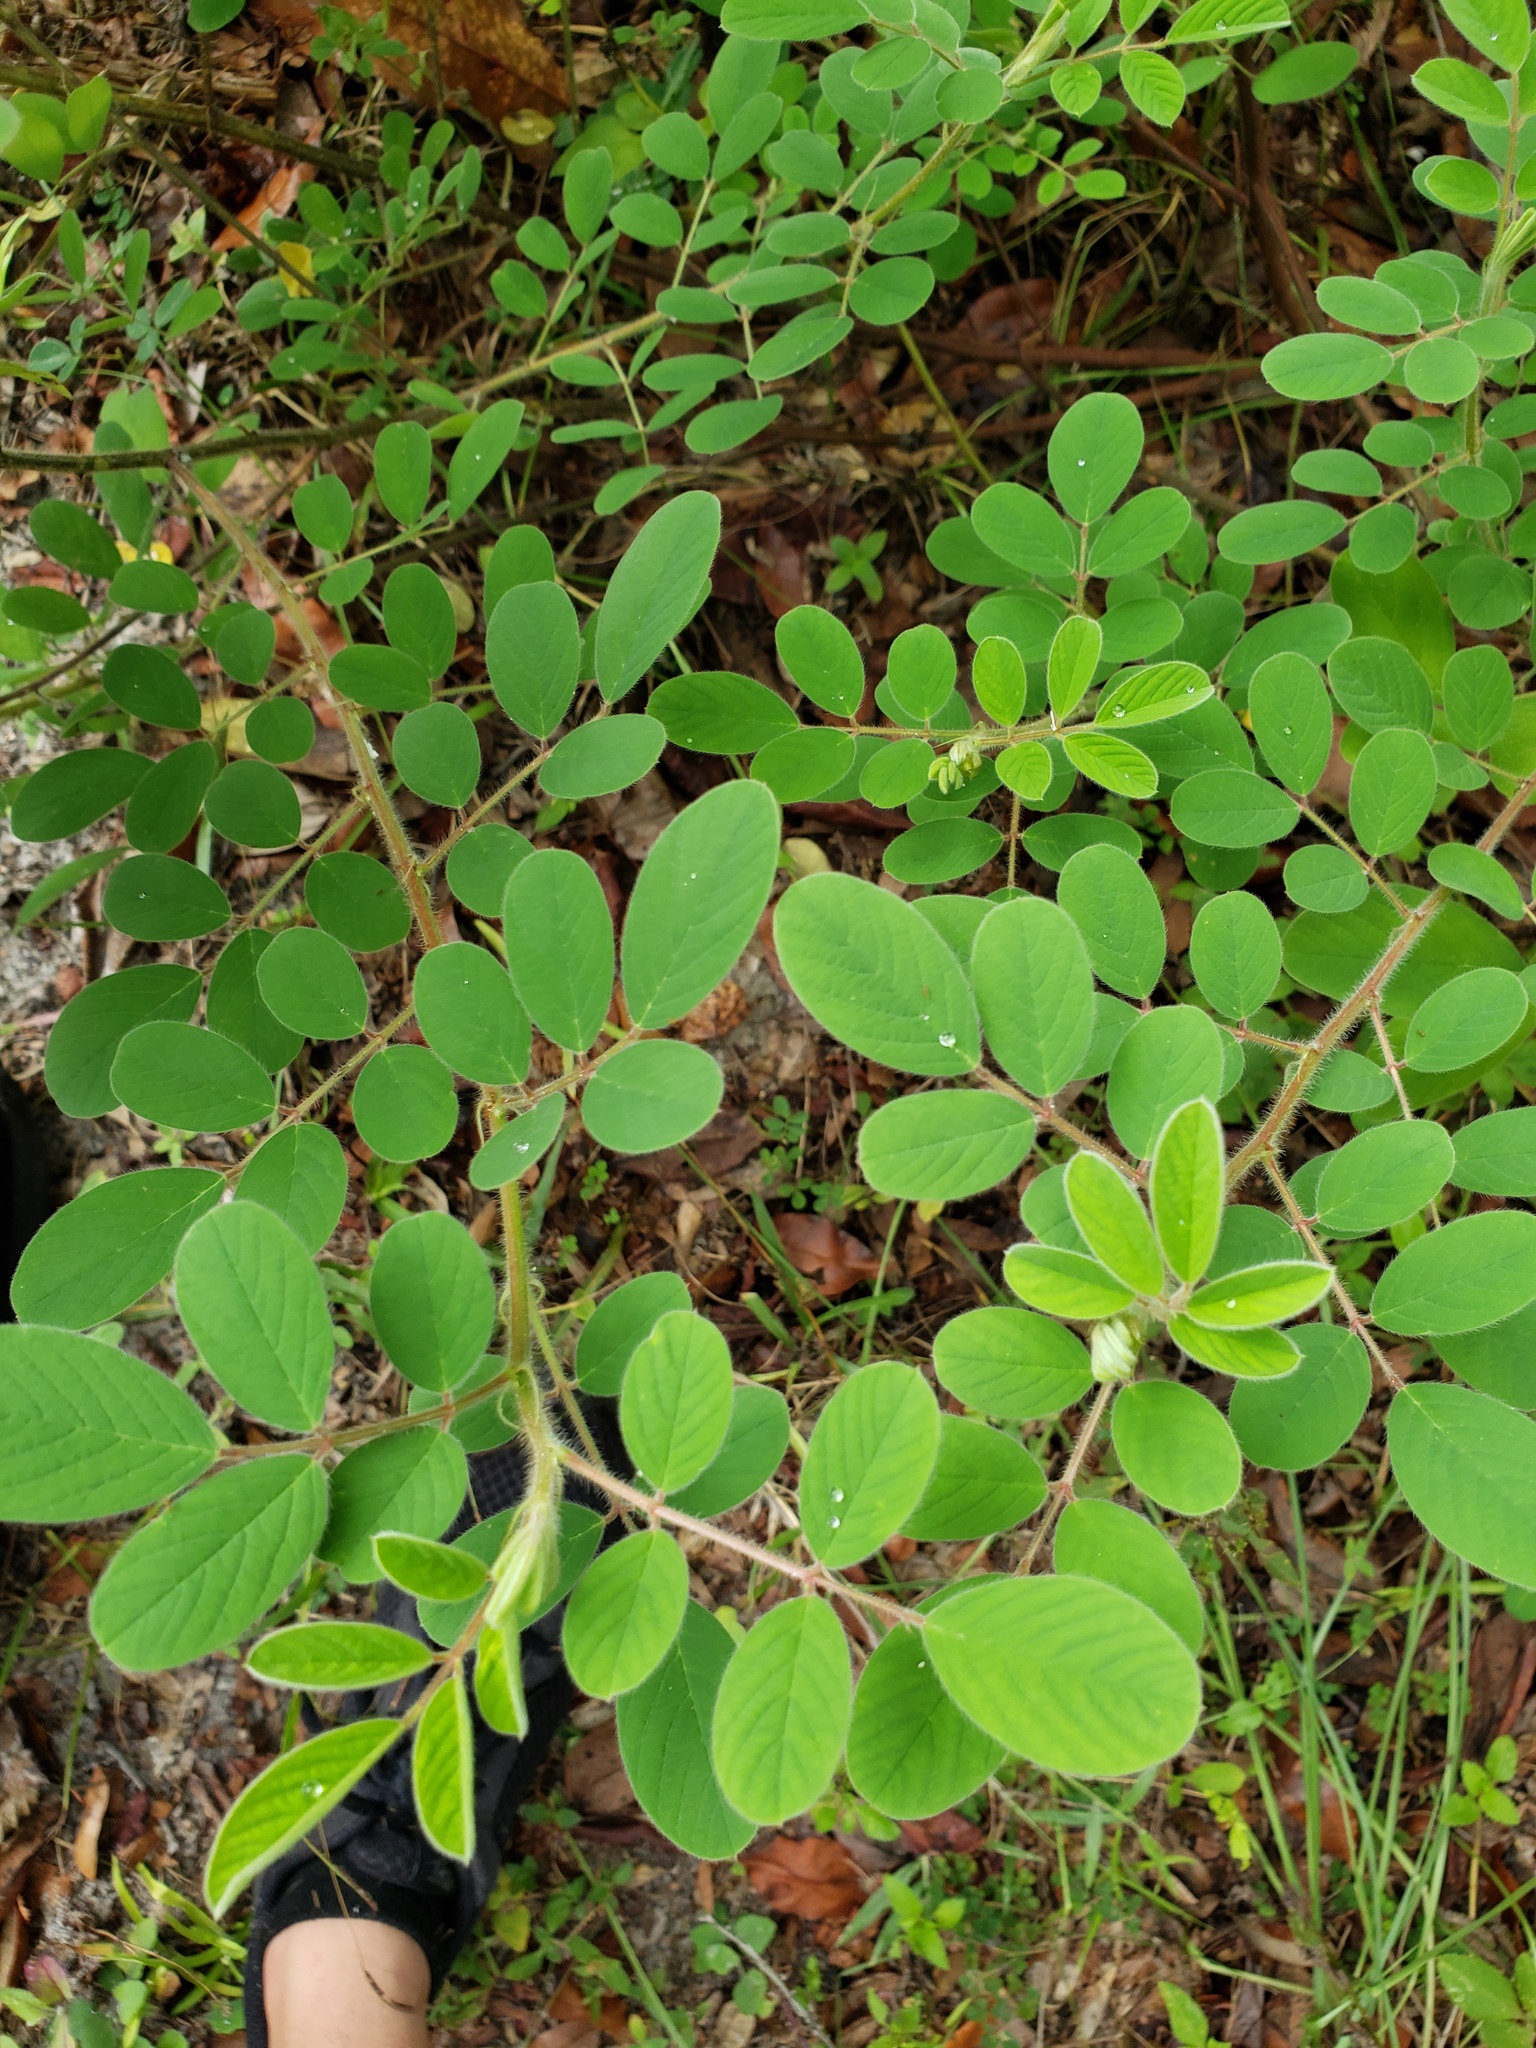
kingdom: Plantae
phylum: Tracheophyta
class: Magnoliopsida
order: Fabales
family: Fabaceae
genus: Indigofera
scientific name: Indigofera hirsuta
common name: Hairy indigo
